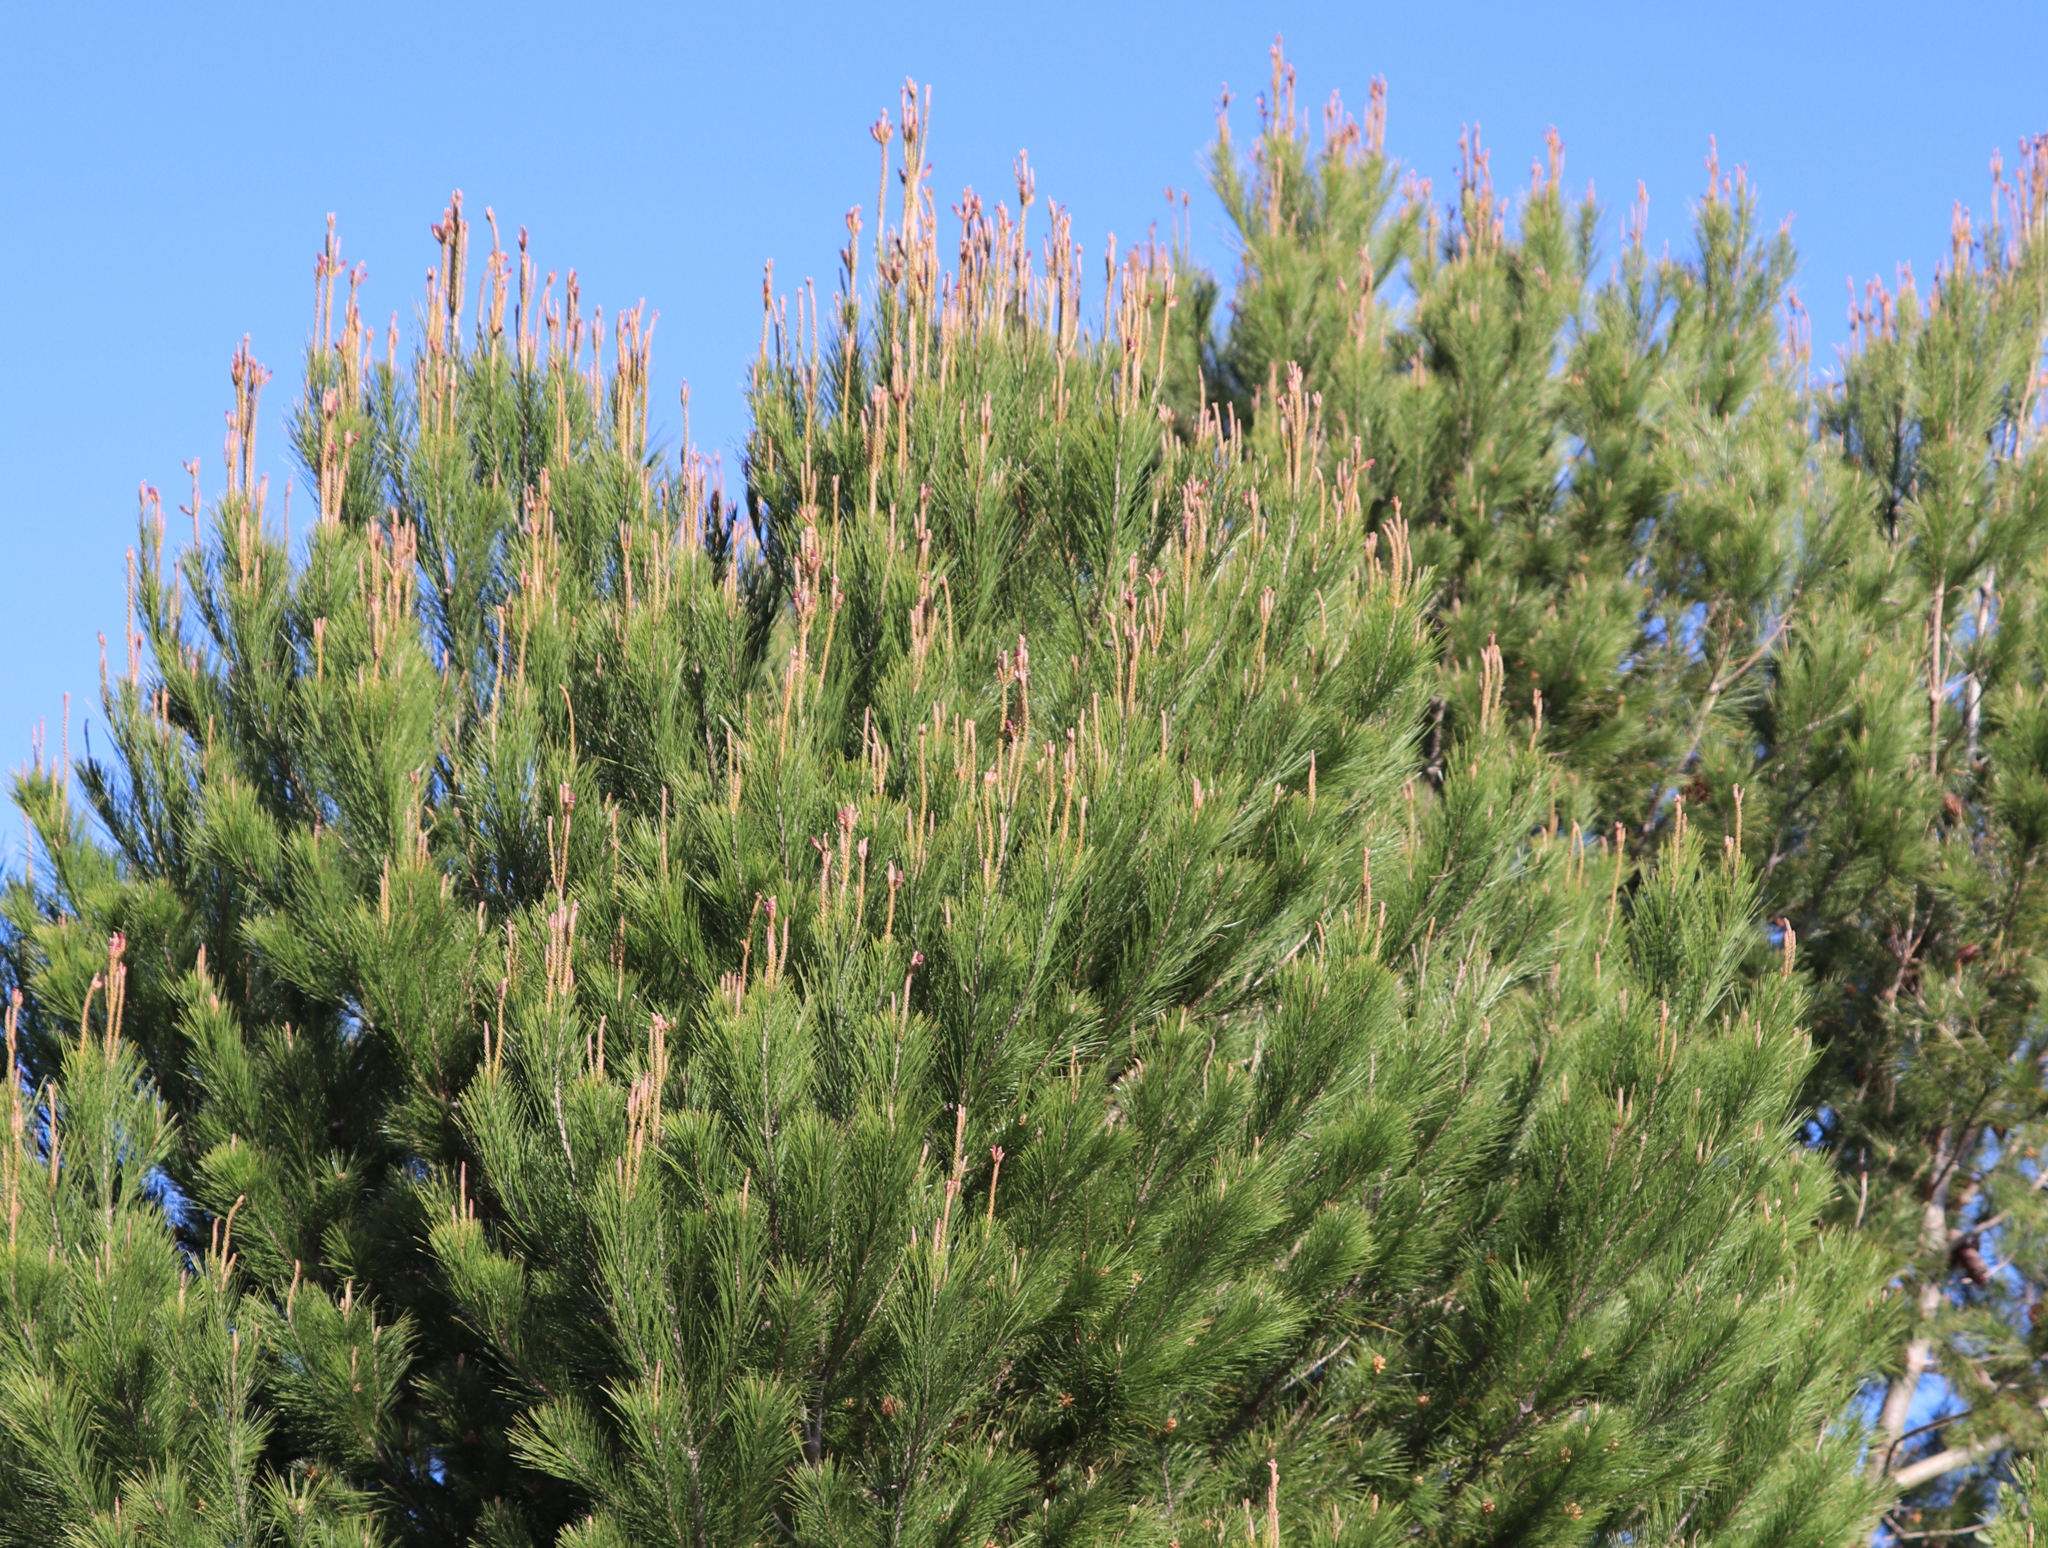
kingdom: Plantae
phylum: Tracheophyta
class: Pinopsida
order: Pinales
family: Pinaceae
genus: Pinus
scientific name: Pinus pinaster
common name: Maritime pine
